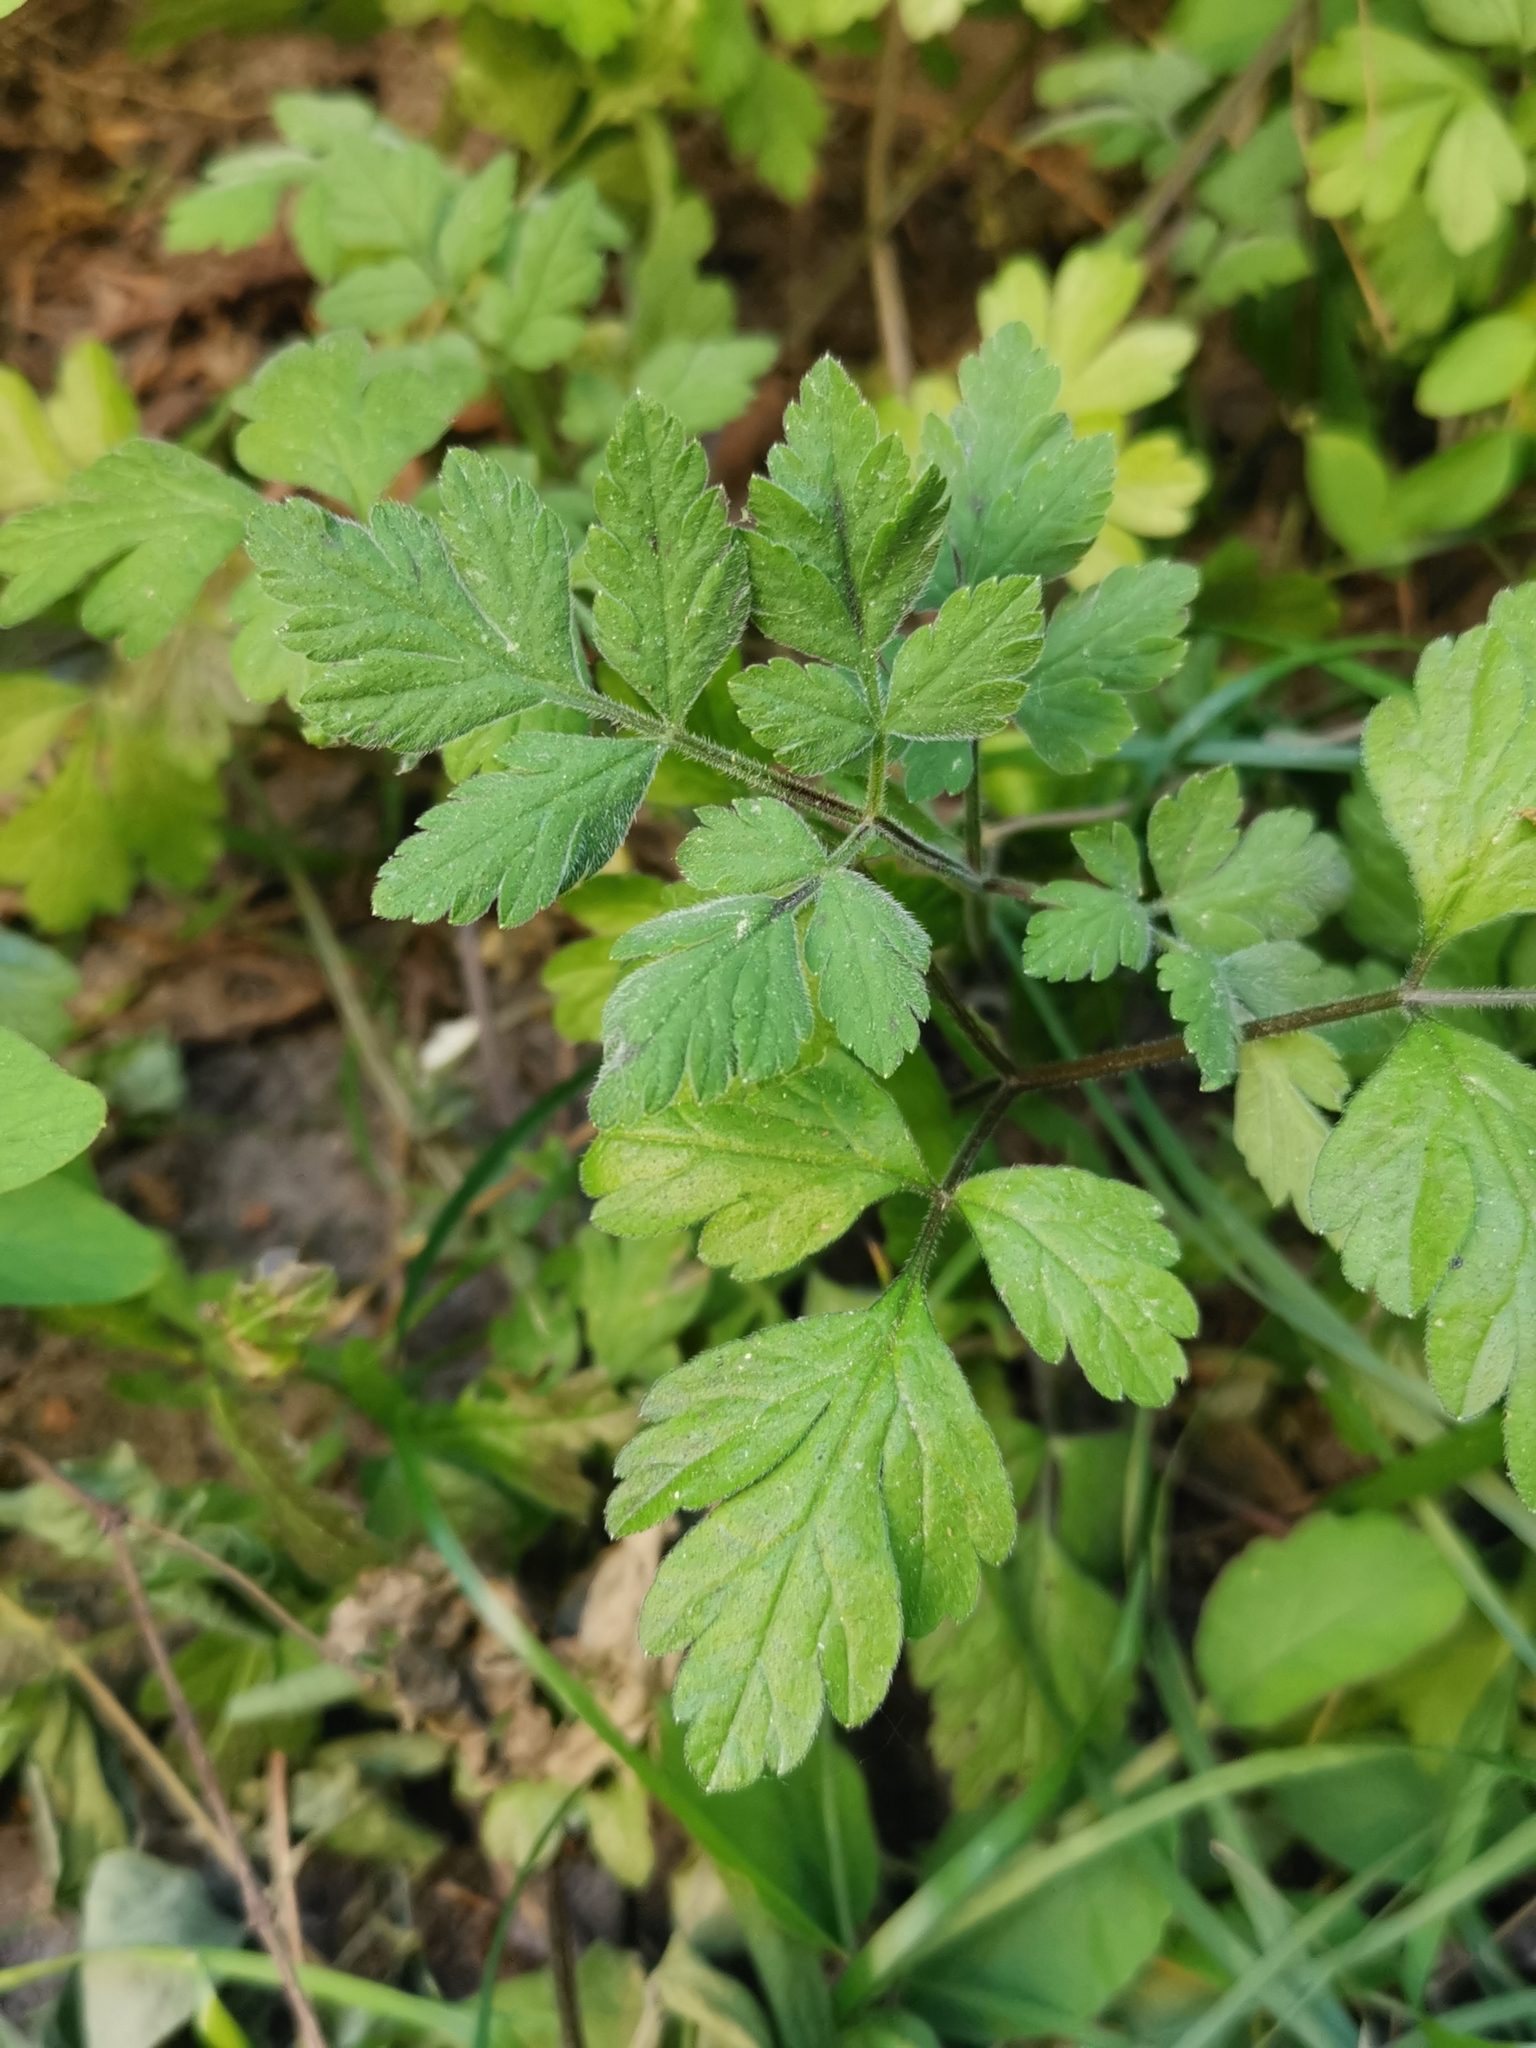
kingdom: Plantae
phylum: Tracheophyta
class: Magnoliopsida
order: Apiales
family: Apiaceae
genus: Chaerophyllum
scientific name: Chaerophyllum temulum
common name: Rough chervil
